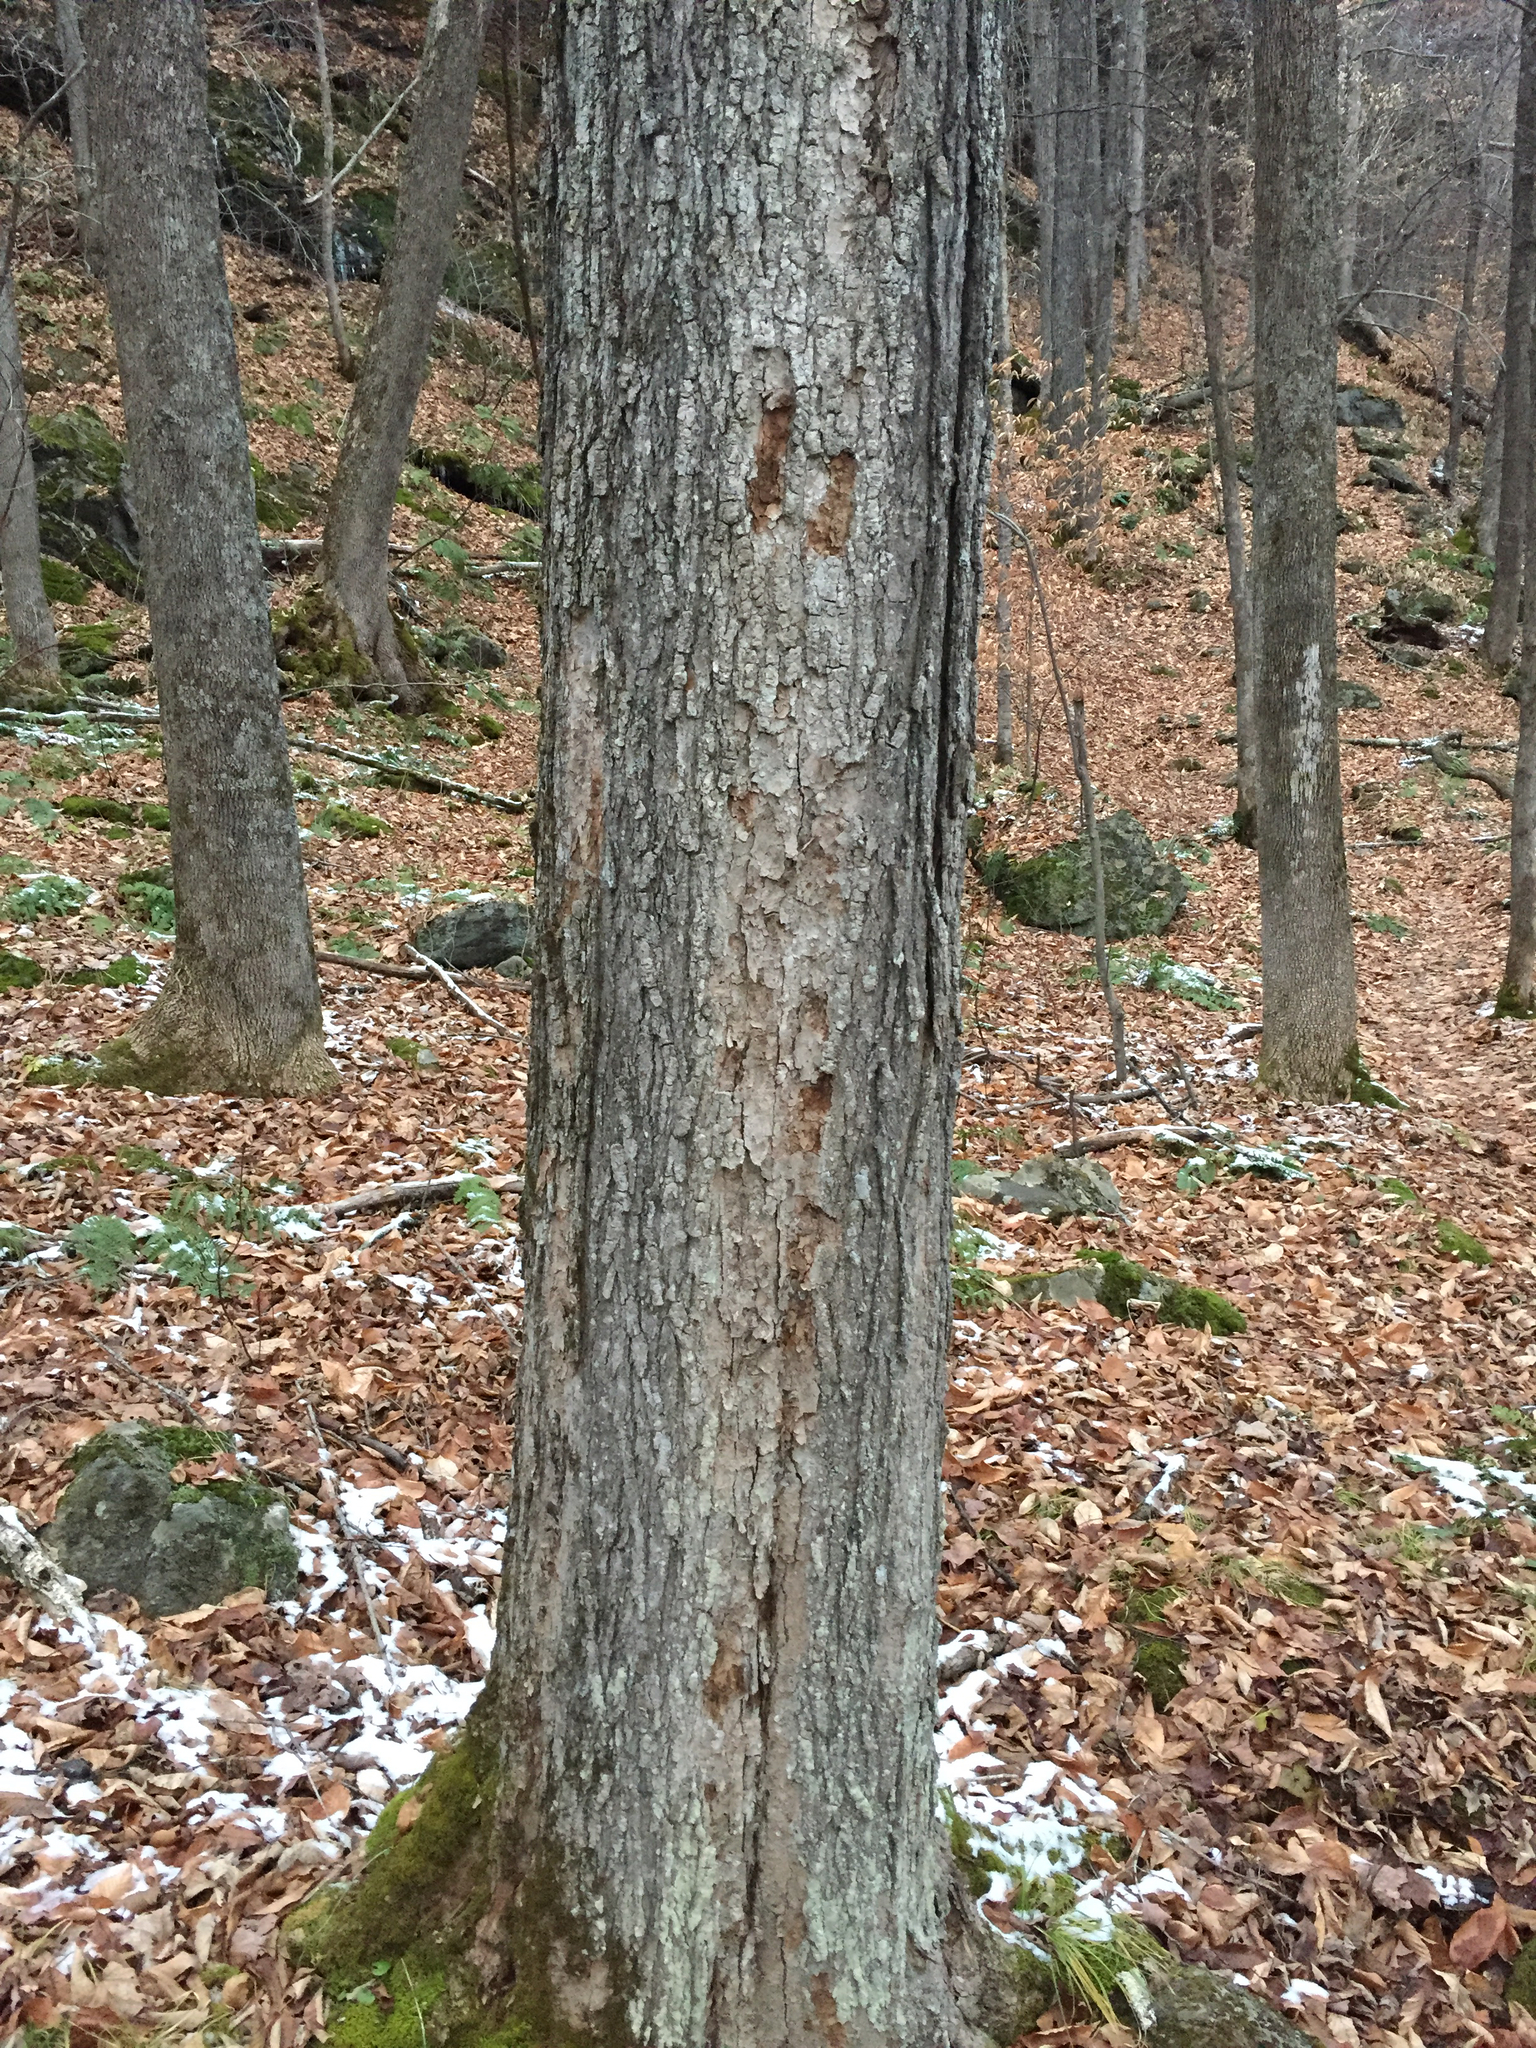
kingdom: Plantae
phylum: Tracheophyta
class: Magnoliopsida
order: Sapindales
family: Sapindaceae
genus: Acer
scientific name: Acer saccharum
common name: Sugar maple
